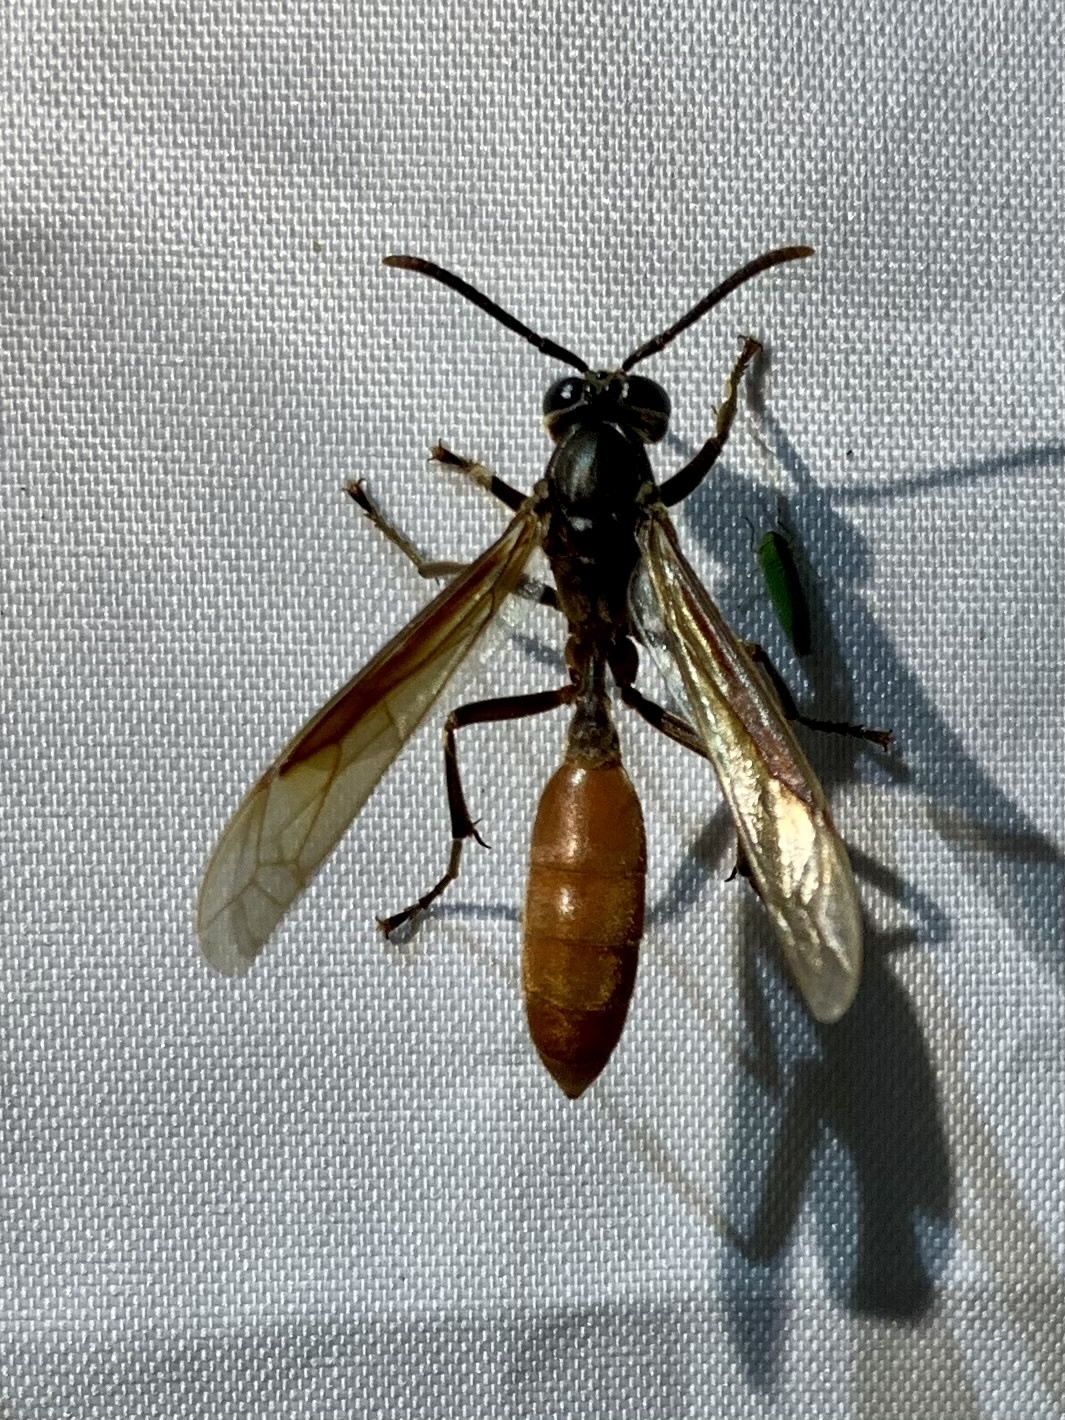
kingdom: Animalia
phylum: Arthropoda
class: Insecta
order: Hymenoptera
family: Vespidae
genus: Apoica
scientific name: Apoica thoracica
